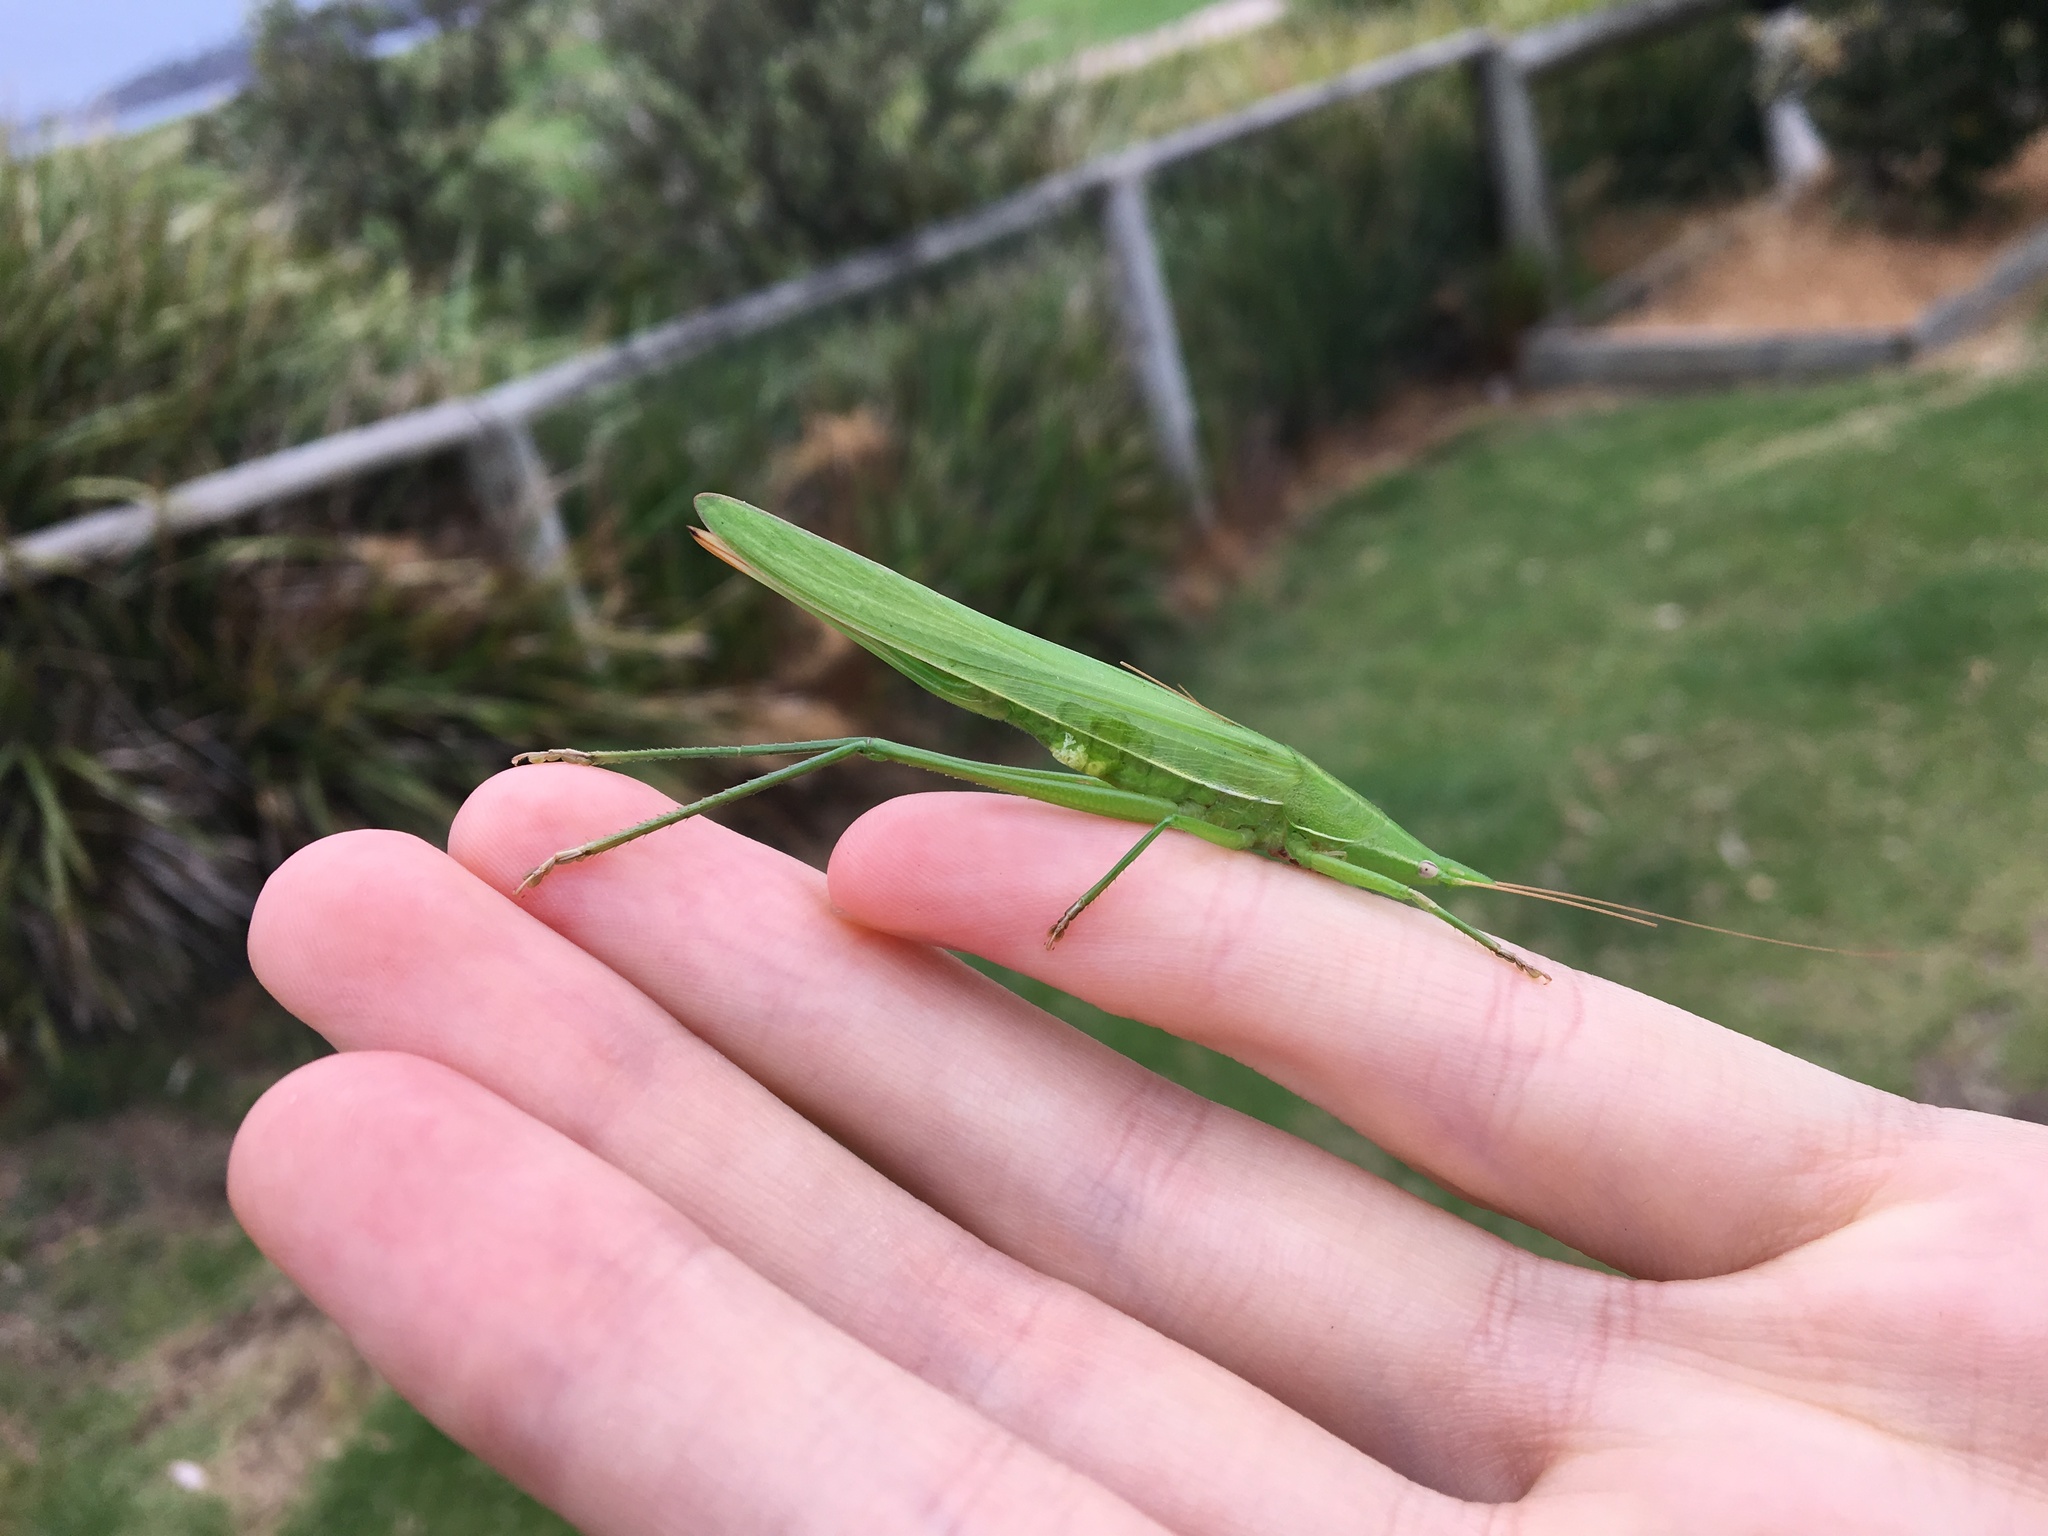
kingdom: Animalia
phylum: Arthropoda
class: Insecta
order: Orthoptera
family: Tettigoniidae
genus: Pseudorhynchus
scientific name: Pseudorhynchus lessonii
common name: Lesson's mimicking snout nose
